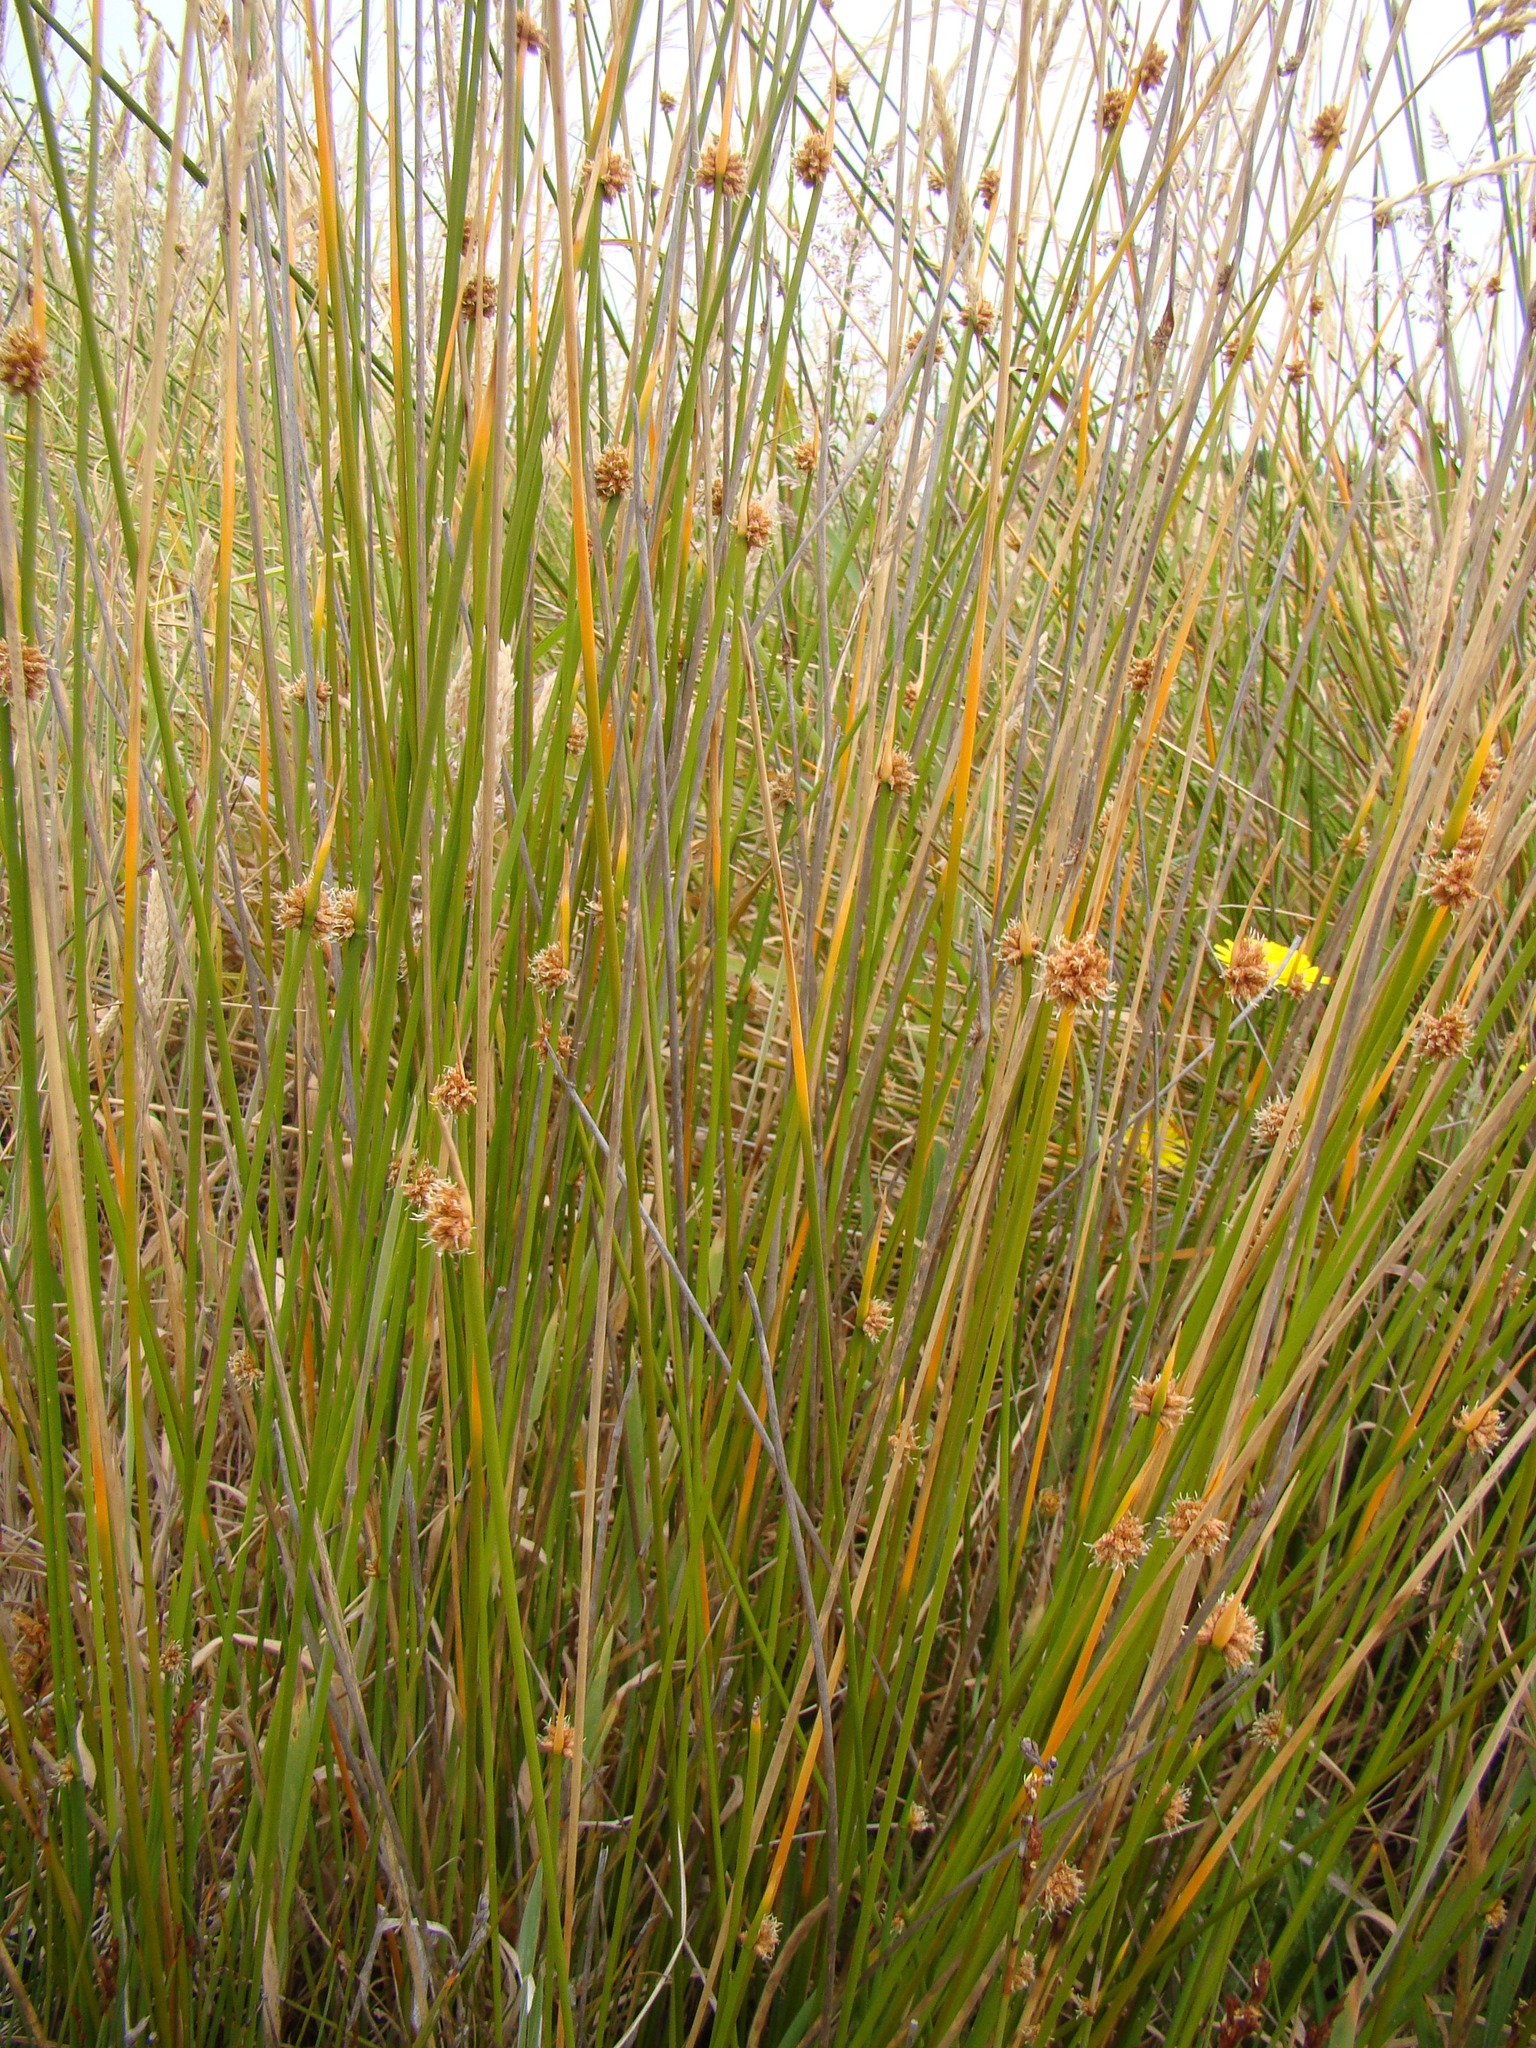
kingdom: Plantae
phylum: Tracheophyta
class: Liliopsida
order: Poales
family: Cyperaceae
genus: Ficinia
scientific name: Ficinia nodosa
